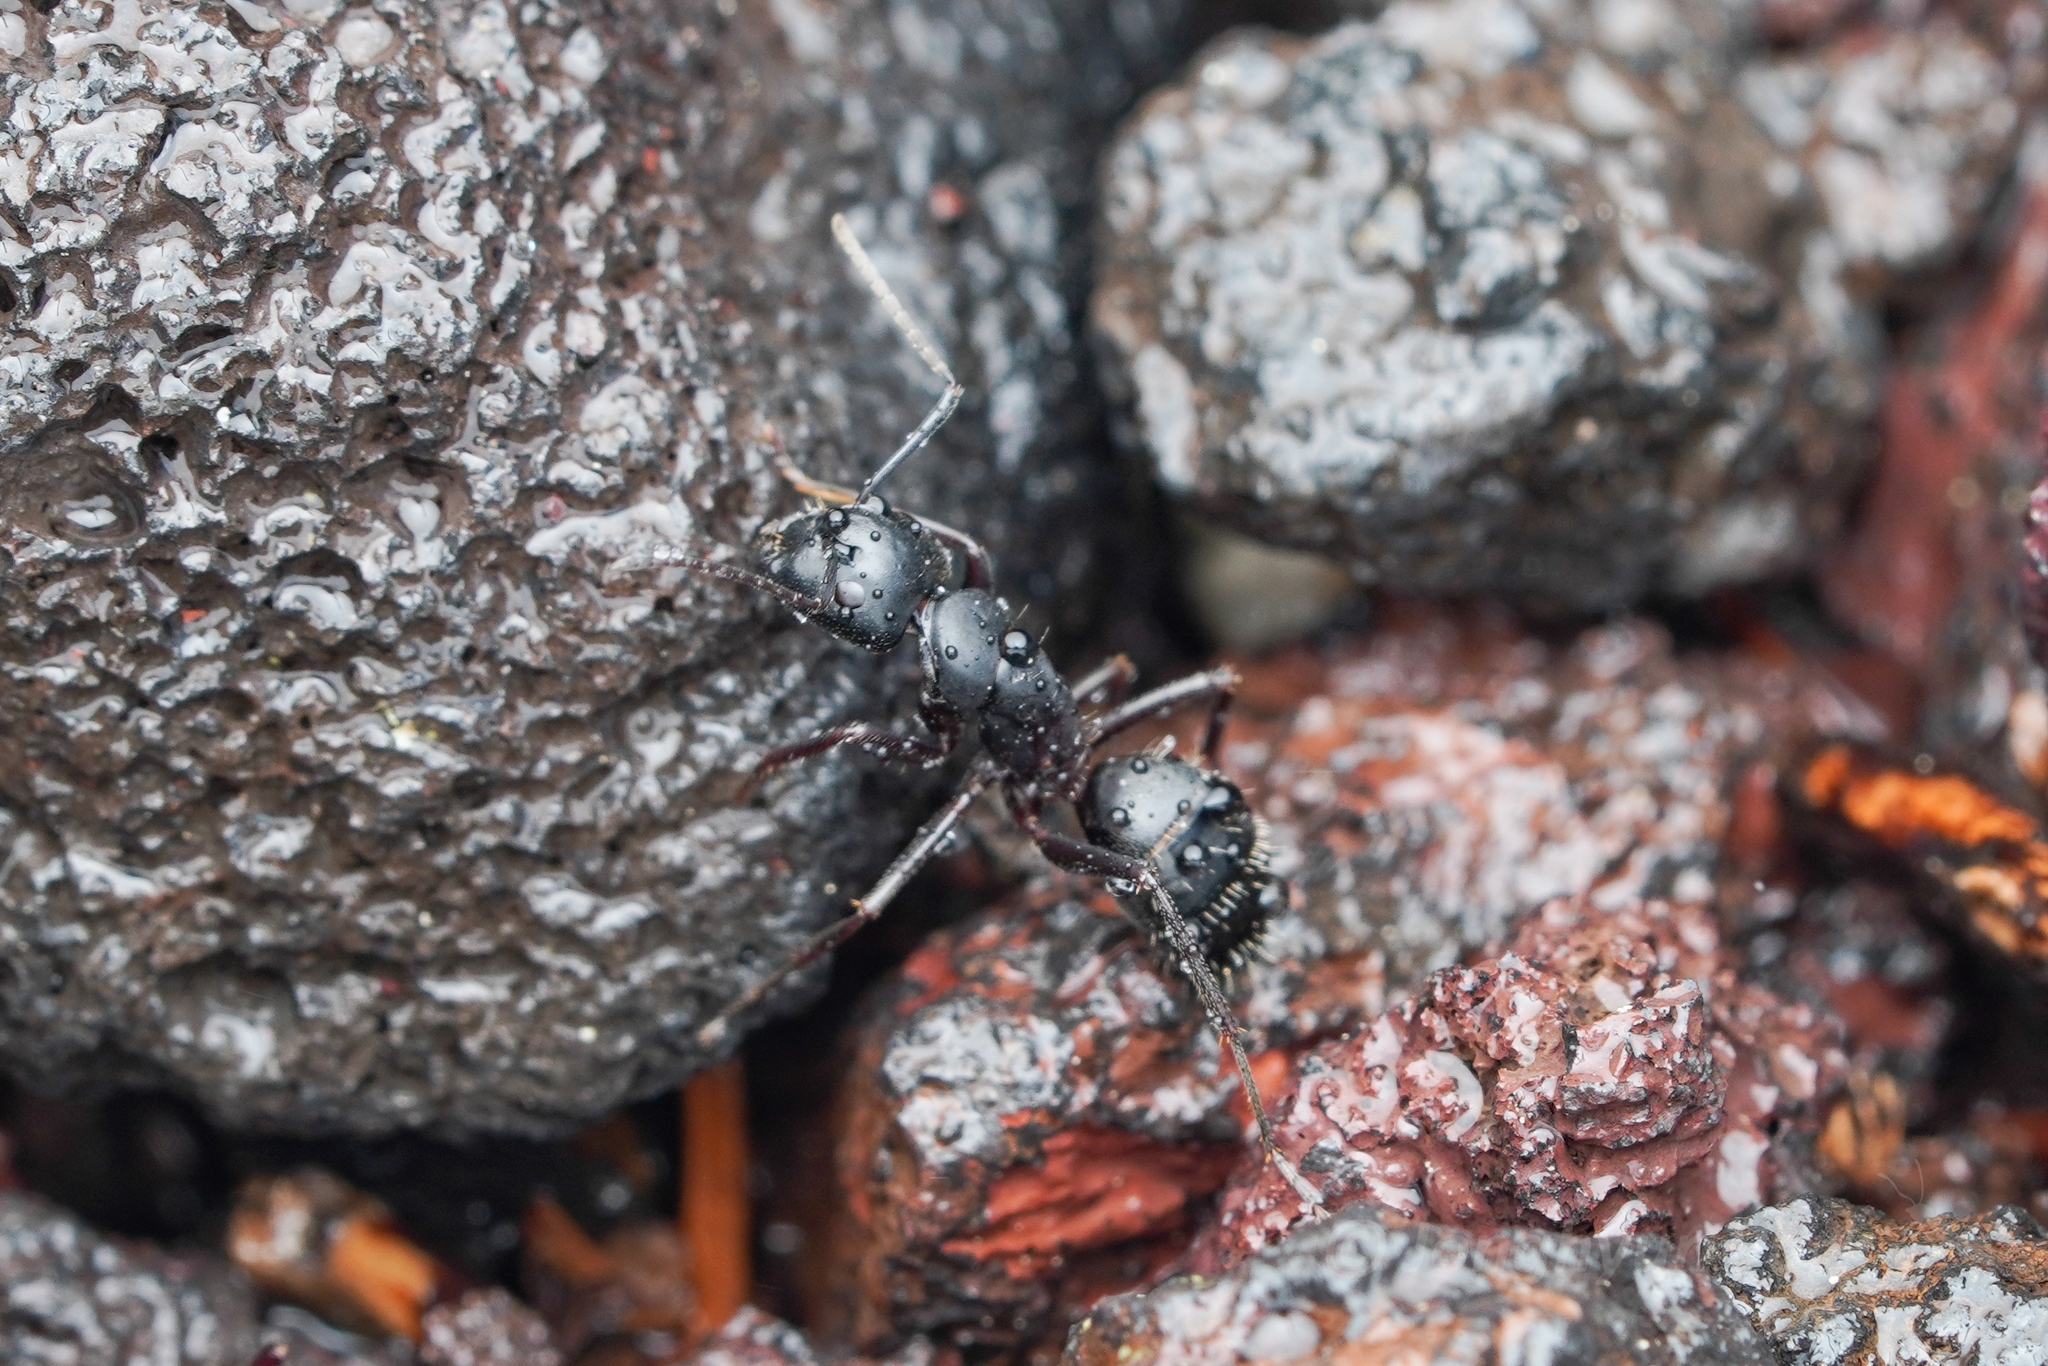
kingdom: Animalia
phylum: Arthropoda
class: Insecta
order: Hymenoptera
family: Formicidae
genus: Camponotus
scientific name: Camponotus herculeanus
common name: Hercules ant
